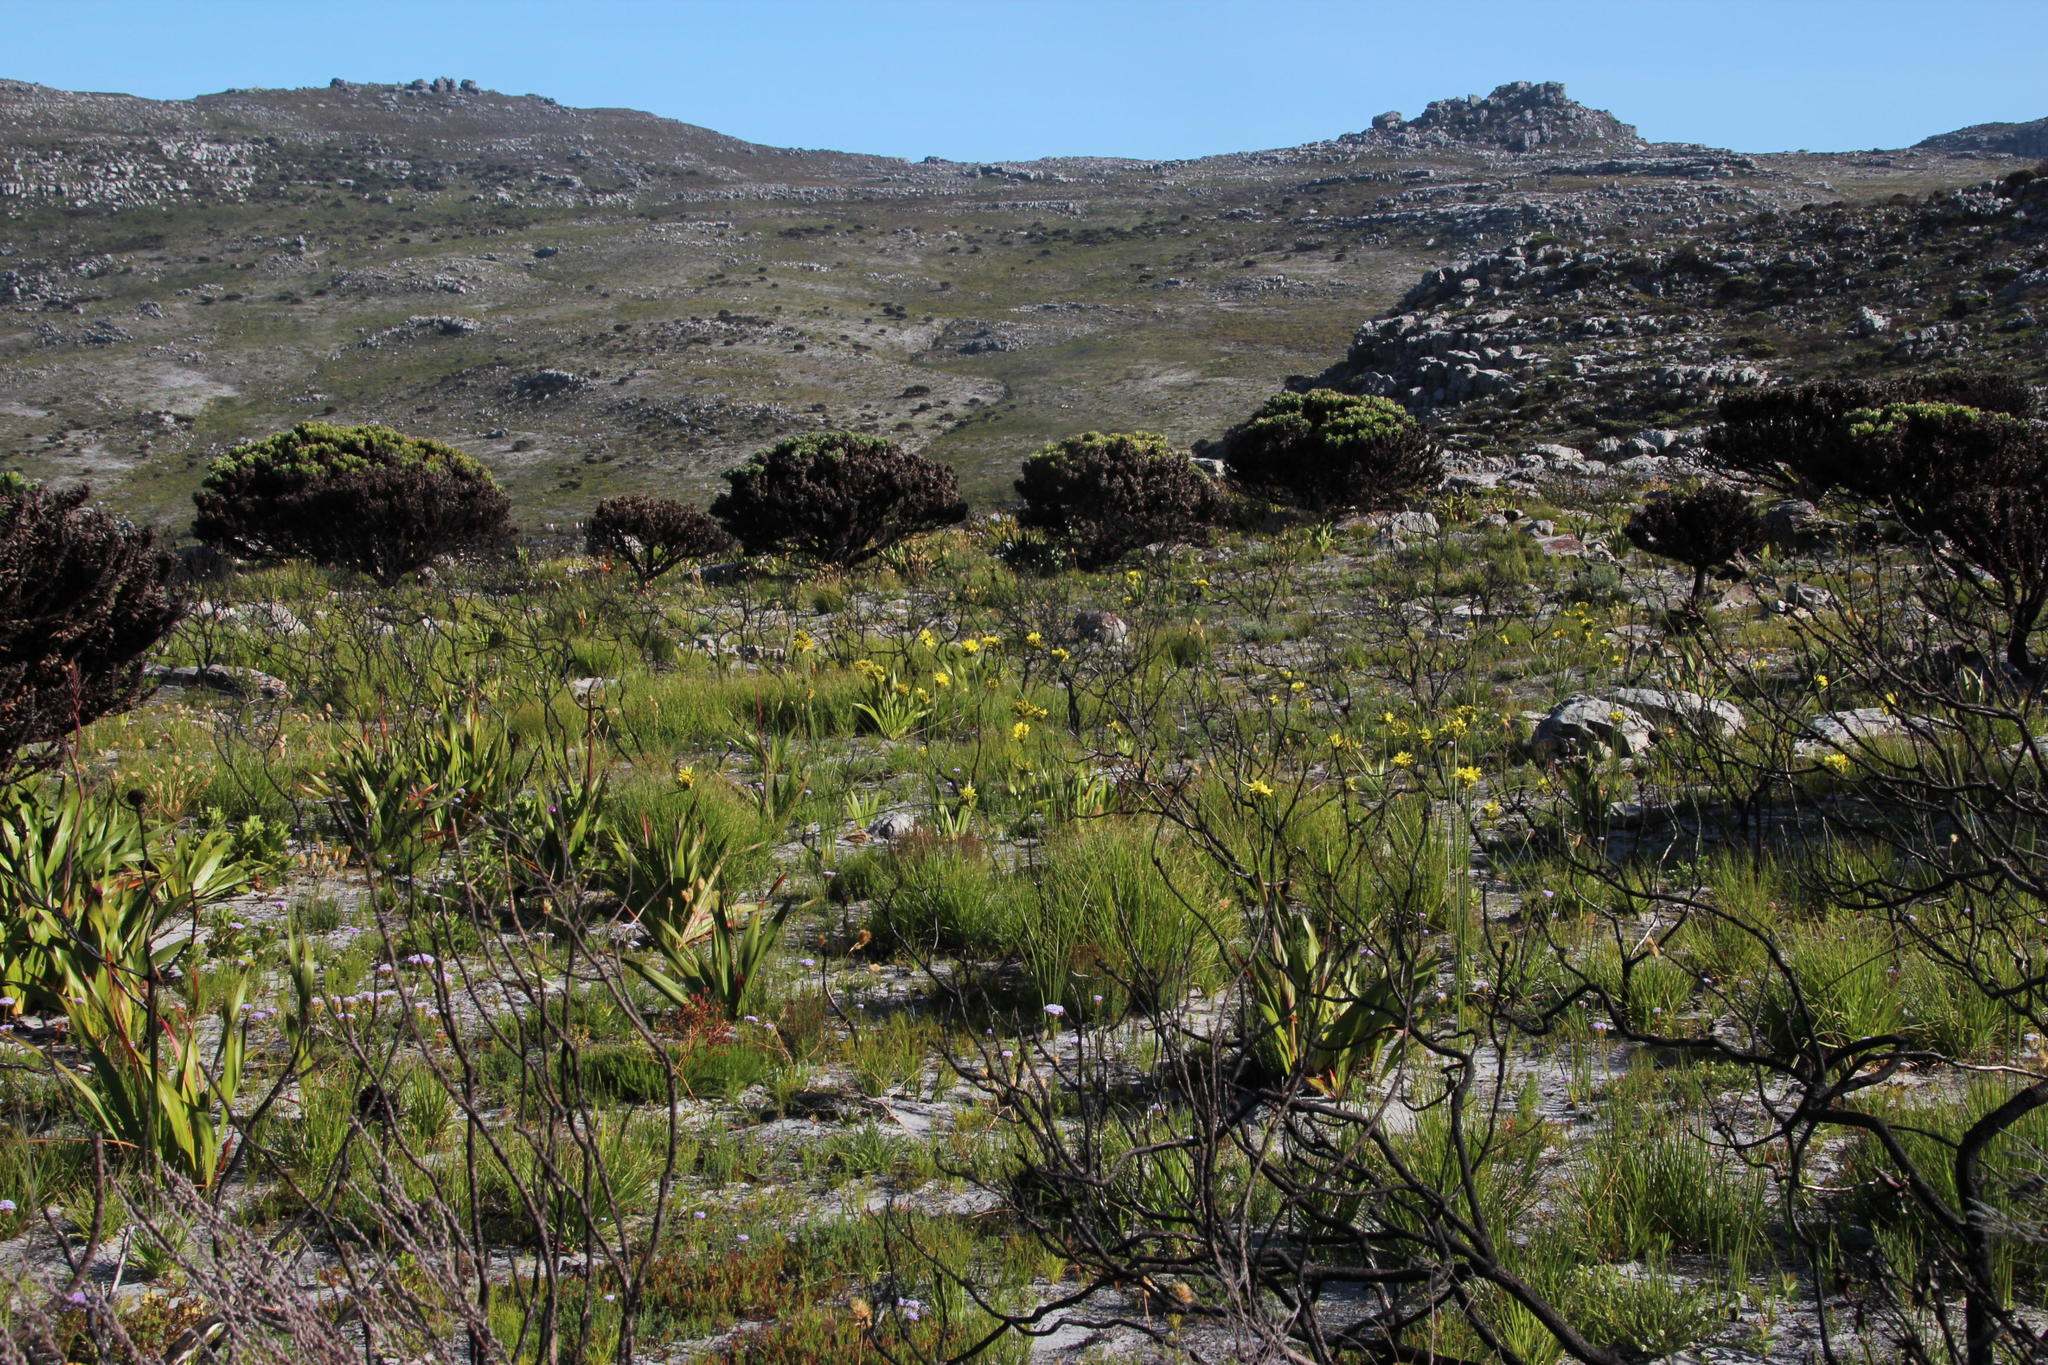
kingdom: Plantae
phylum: Tracheophyta
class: Liliopsida
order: Asparagales
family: Iridaceae
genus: Bobartia
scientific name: Bobartia indica
